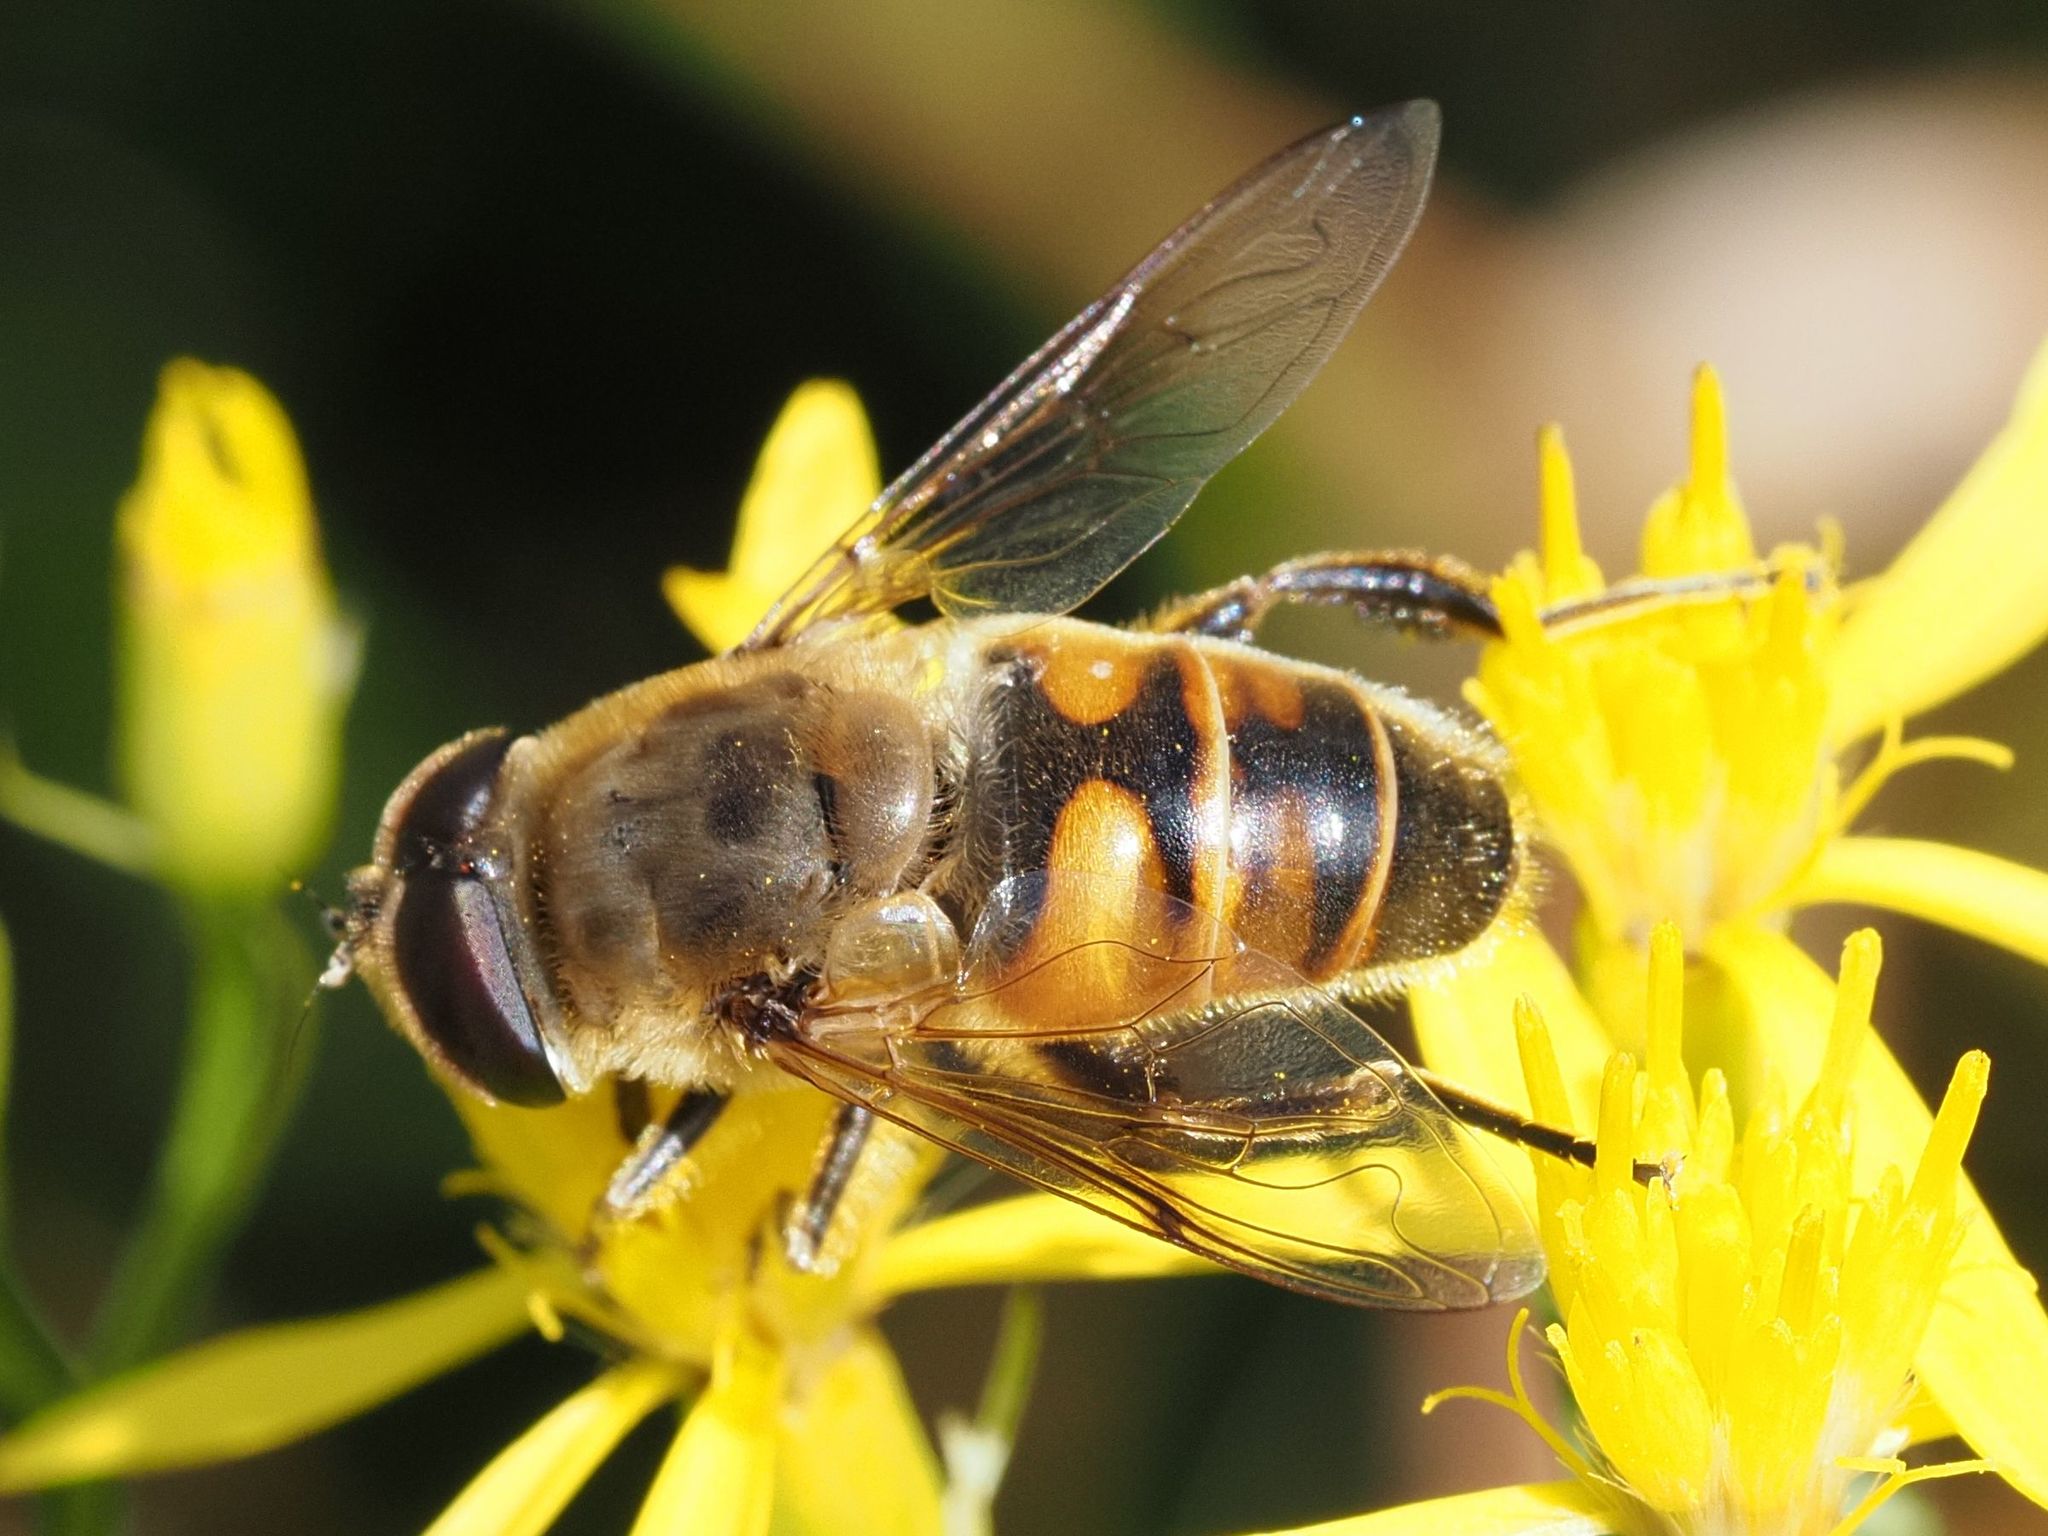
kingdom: Animalia
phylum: Arthropoda
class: Insecta
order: Diptera
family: Syrphidae
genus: Eristalis
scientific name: Eristalis tenax
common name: Drone fly
